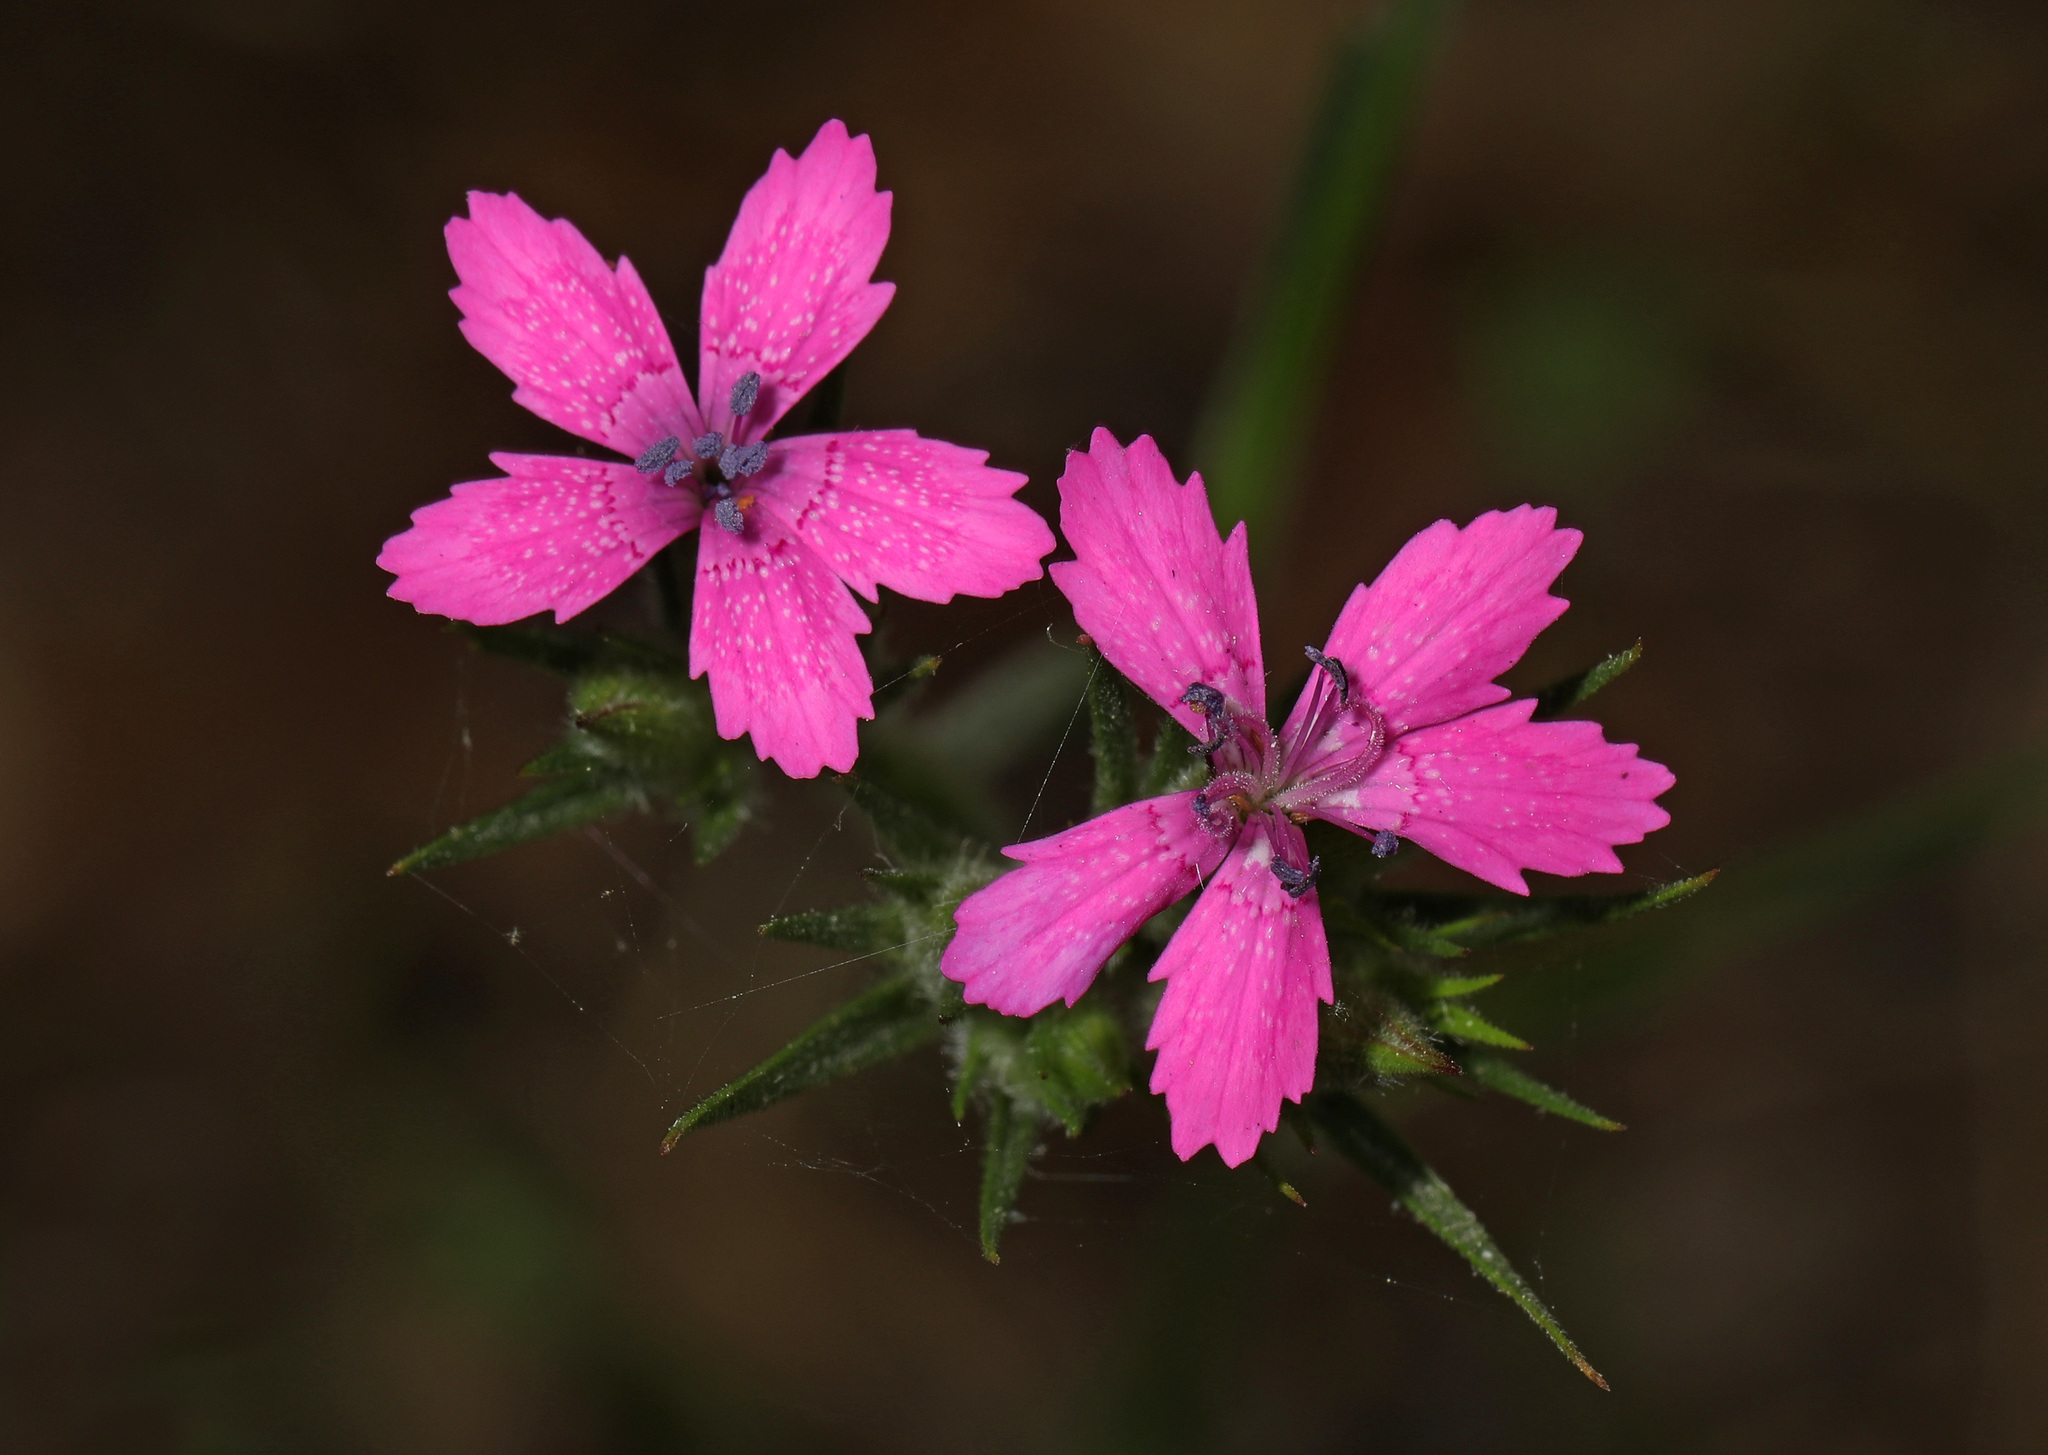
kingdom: Plantae
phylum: Tracheophyta
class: Magnoliopsida
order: Caryophyllales
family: Caryophyllaceae
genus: Dianthus
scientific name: Dianthus armeria
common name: Deptford pink
